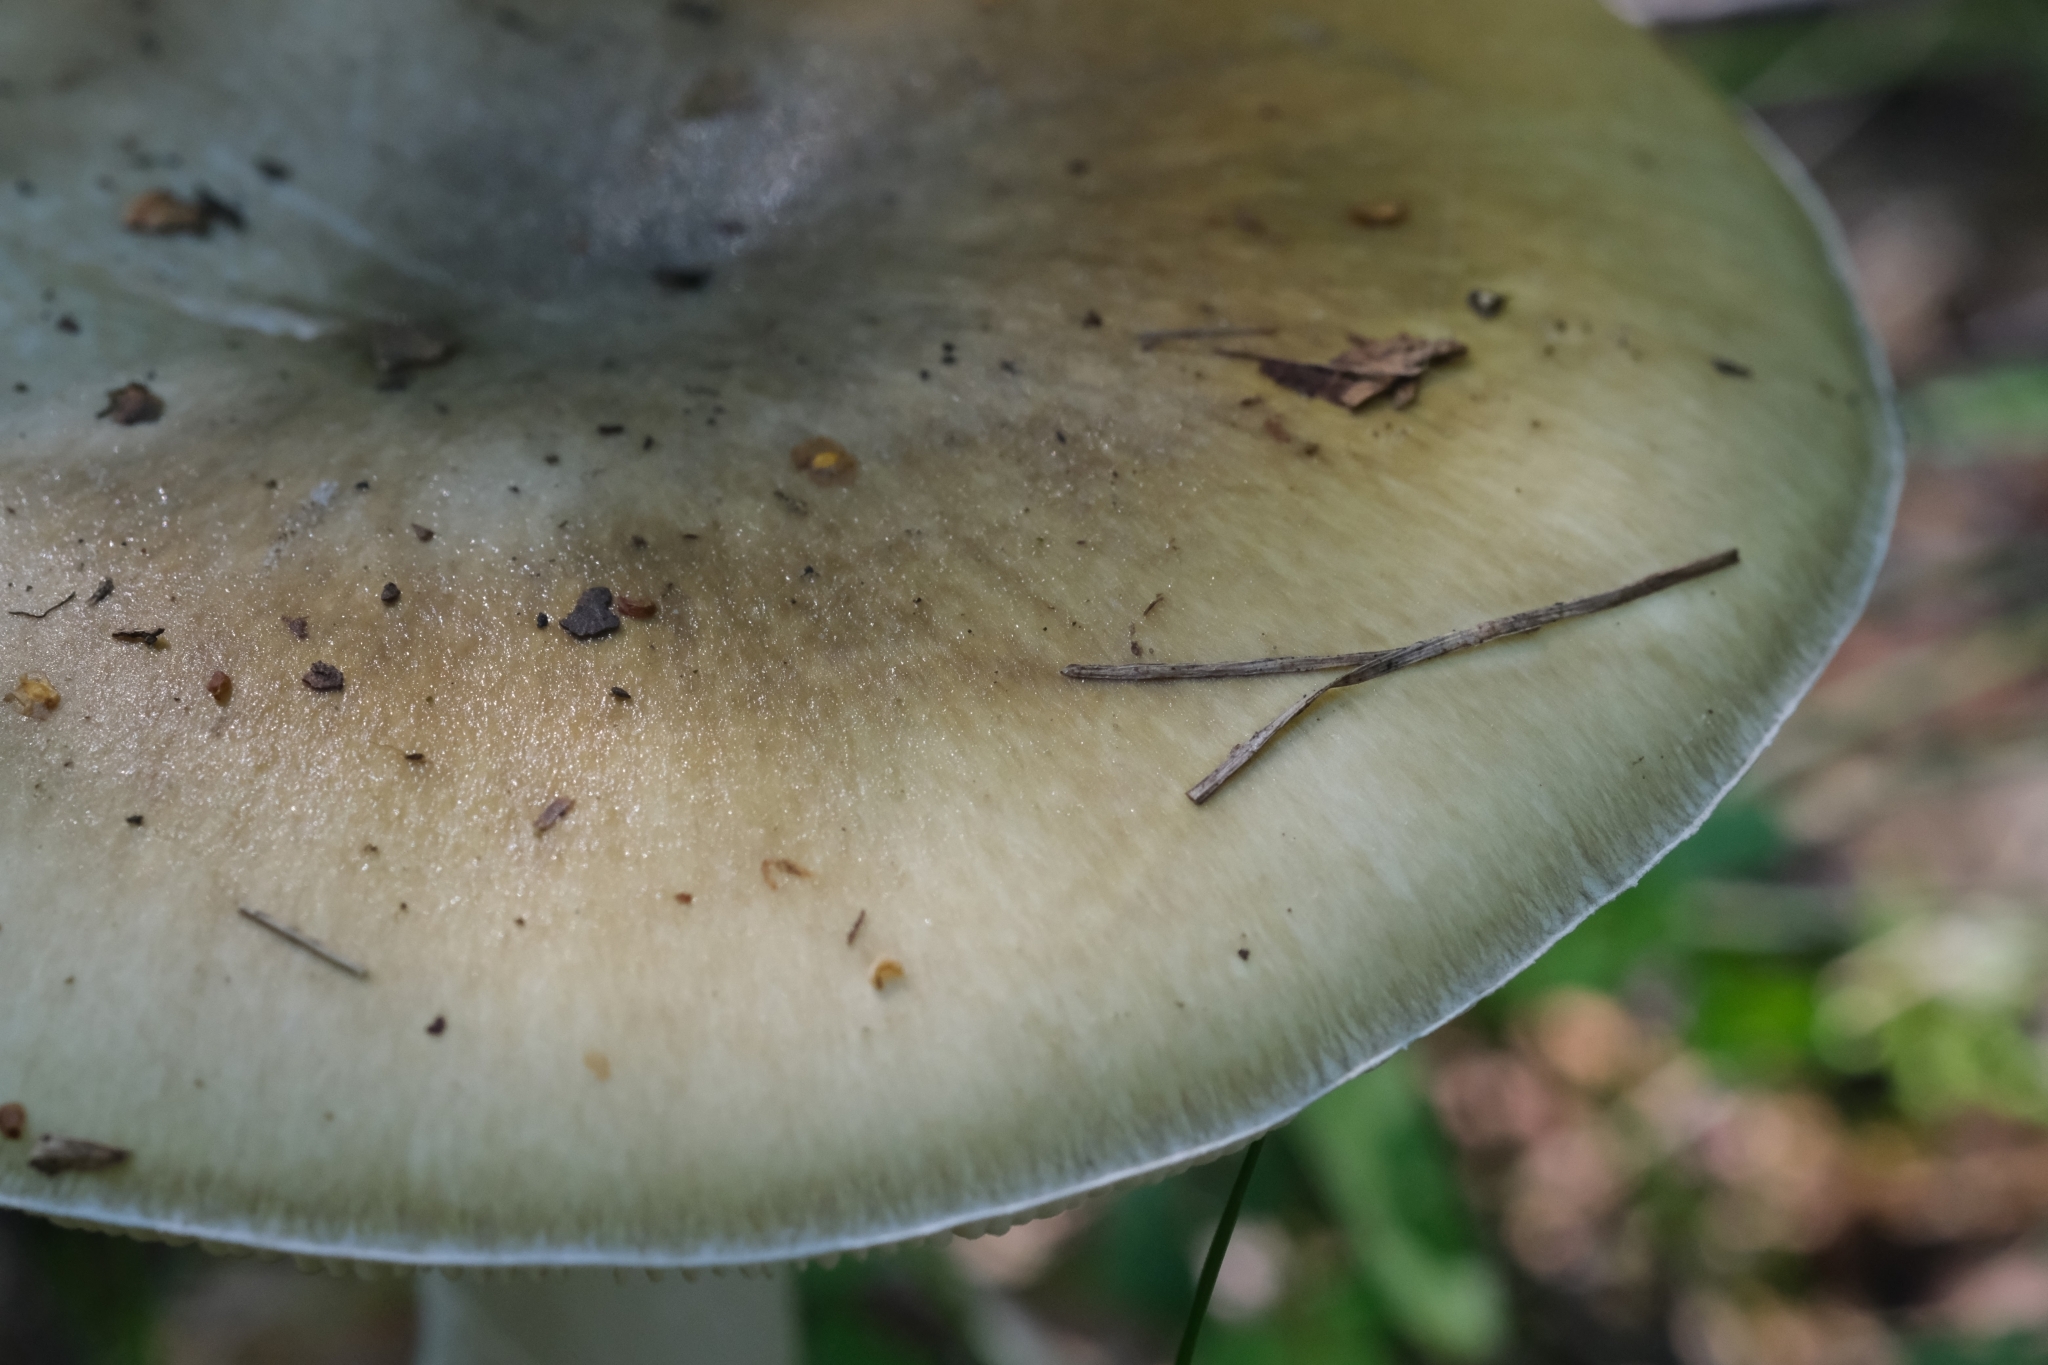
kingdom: Fungi
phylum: Basidiomycota
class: Agaricomycetes
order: Agaricales
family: Amanitaceae
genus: Amanita
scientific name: Amanita phalloides
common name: Death cap
